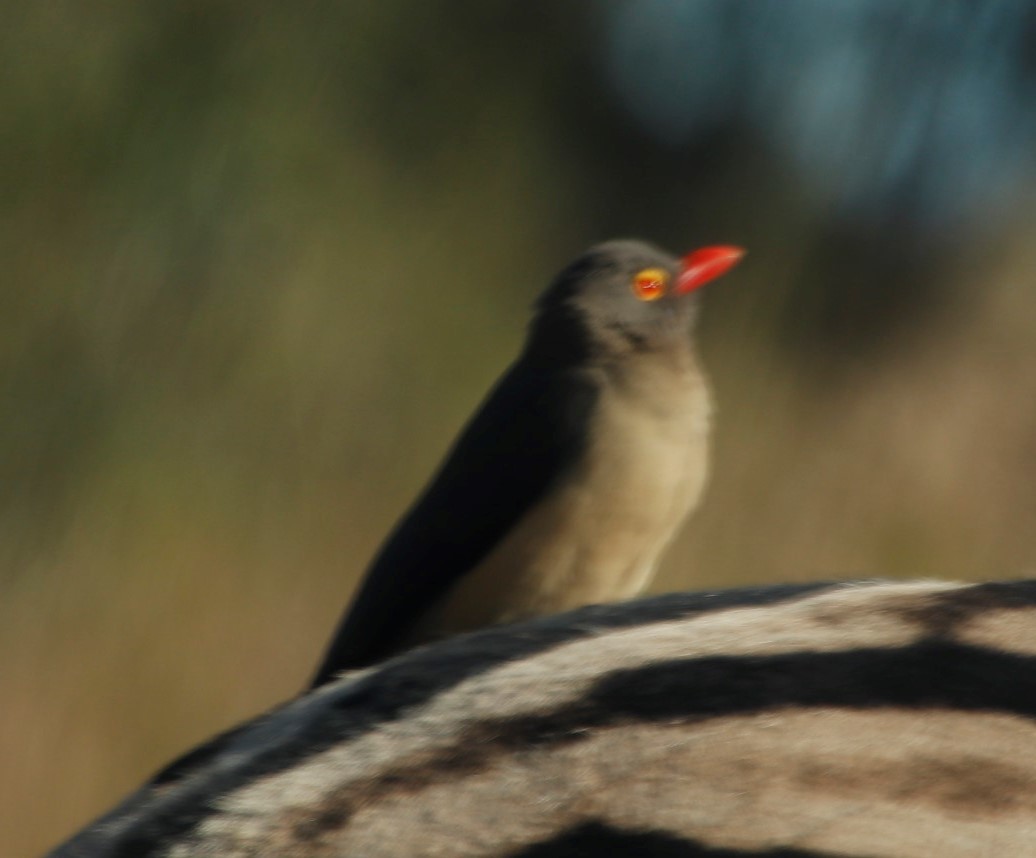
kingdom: Animalia
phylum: Chordata
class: Aves
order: Passeriformes
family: Buphagidae
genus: Buphagus
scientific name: Buphagus erythrorhynchus
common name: Red-billed oxpecker
